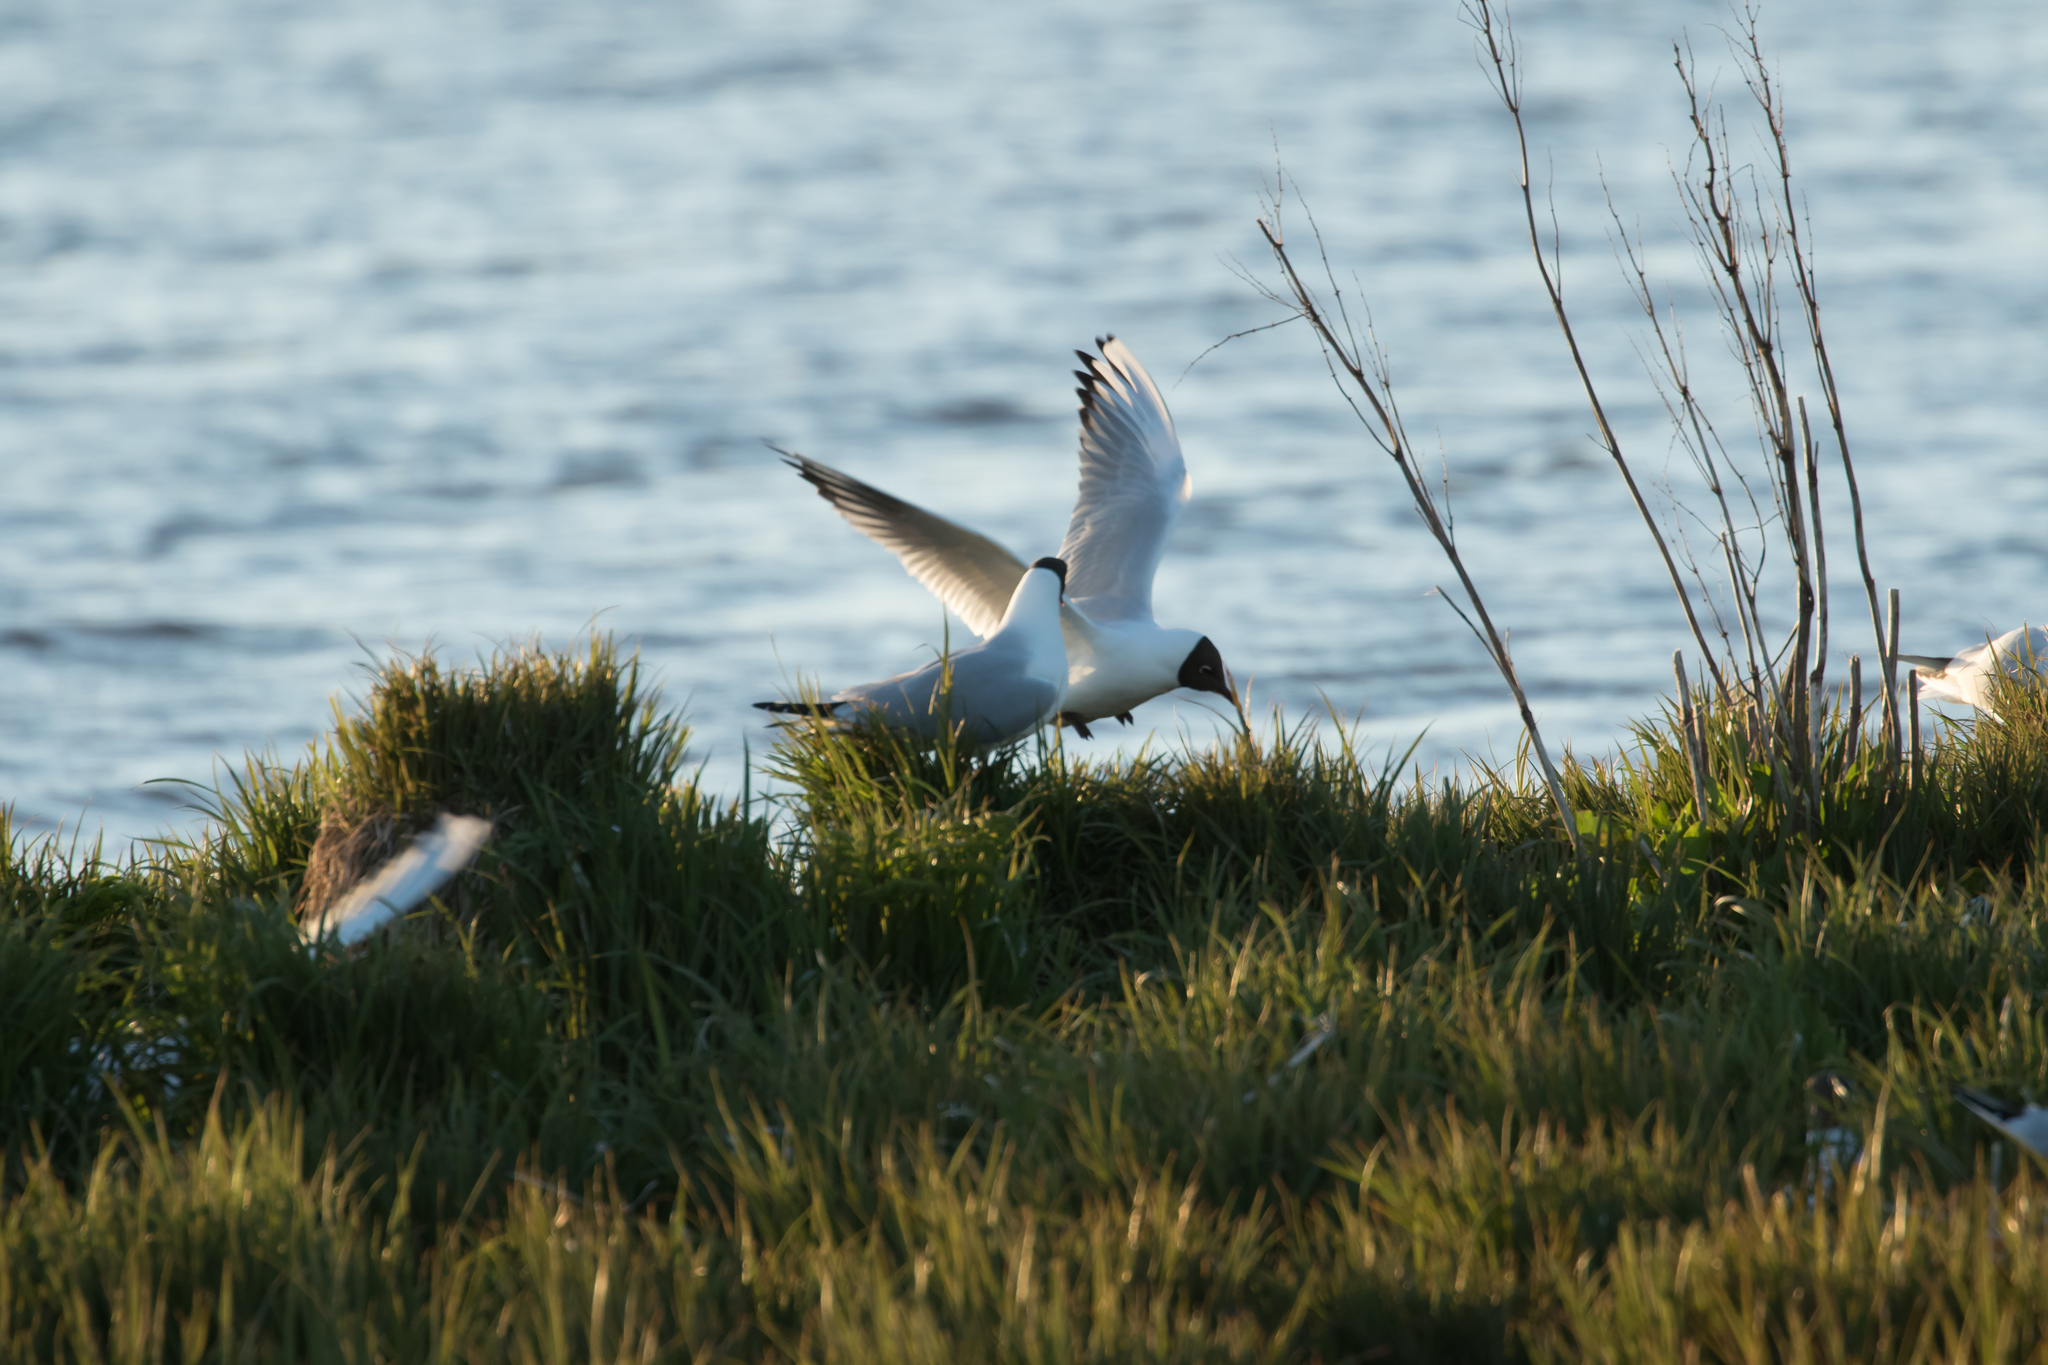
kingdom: Animalia
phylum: Chordata
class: Aves
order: Charadriiformes
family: Laridae
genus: Chroicocephalus
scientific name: Chroicocephalus ridibundus
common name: Black-headed gull
